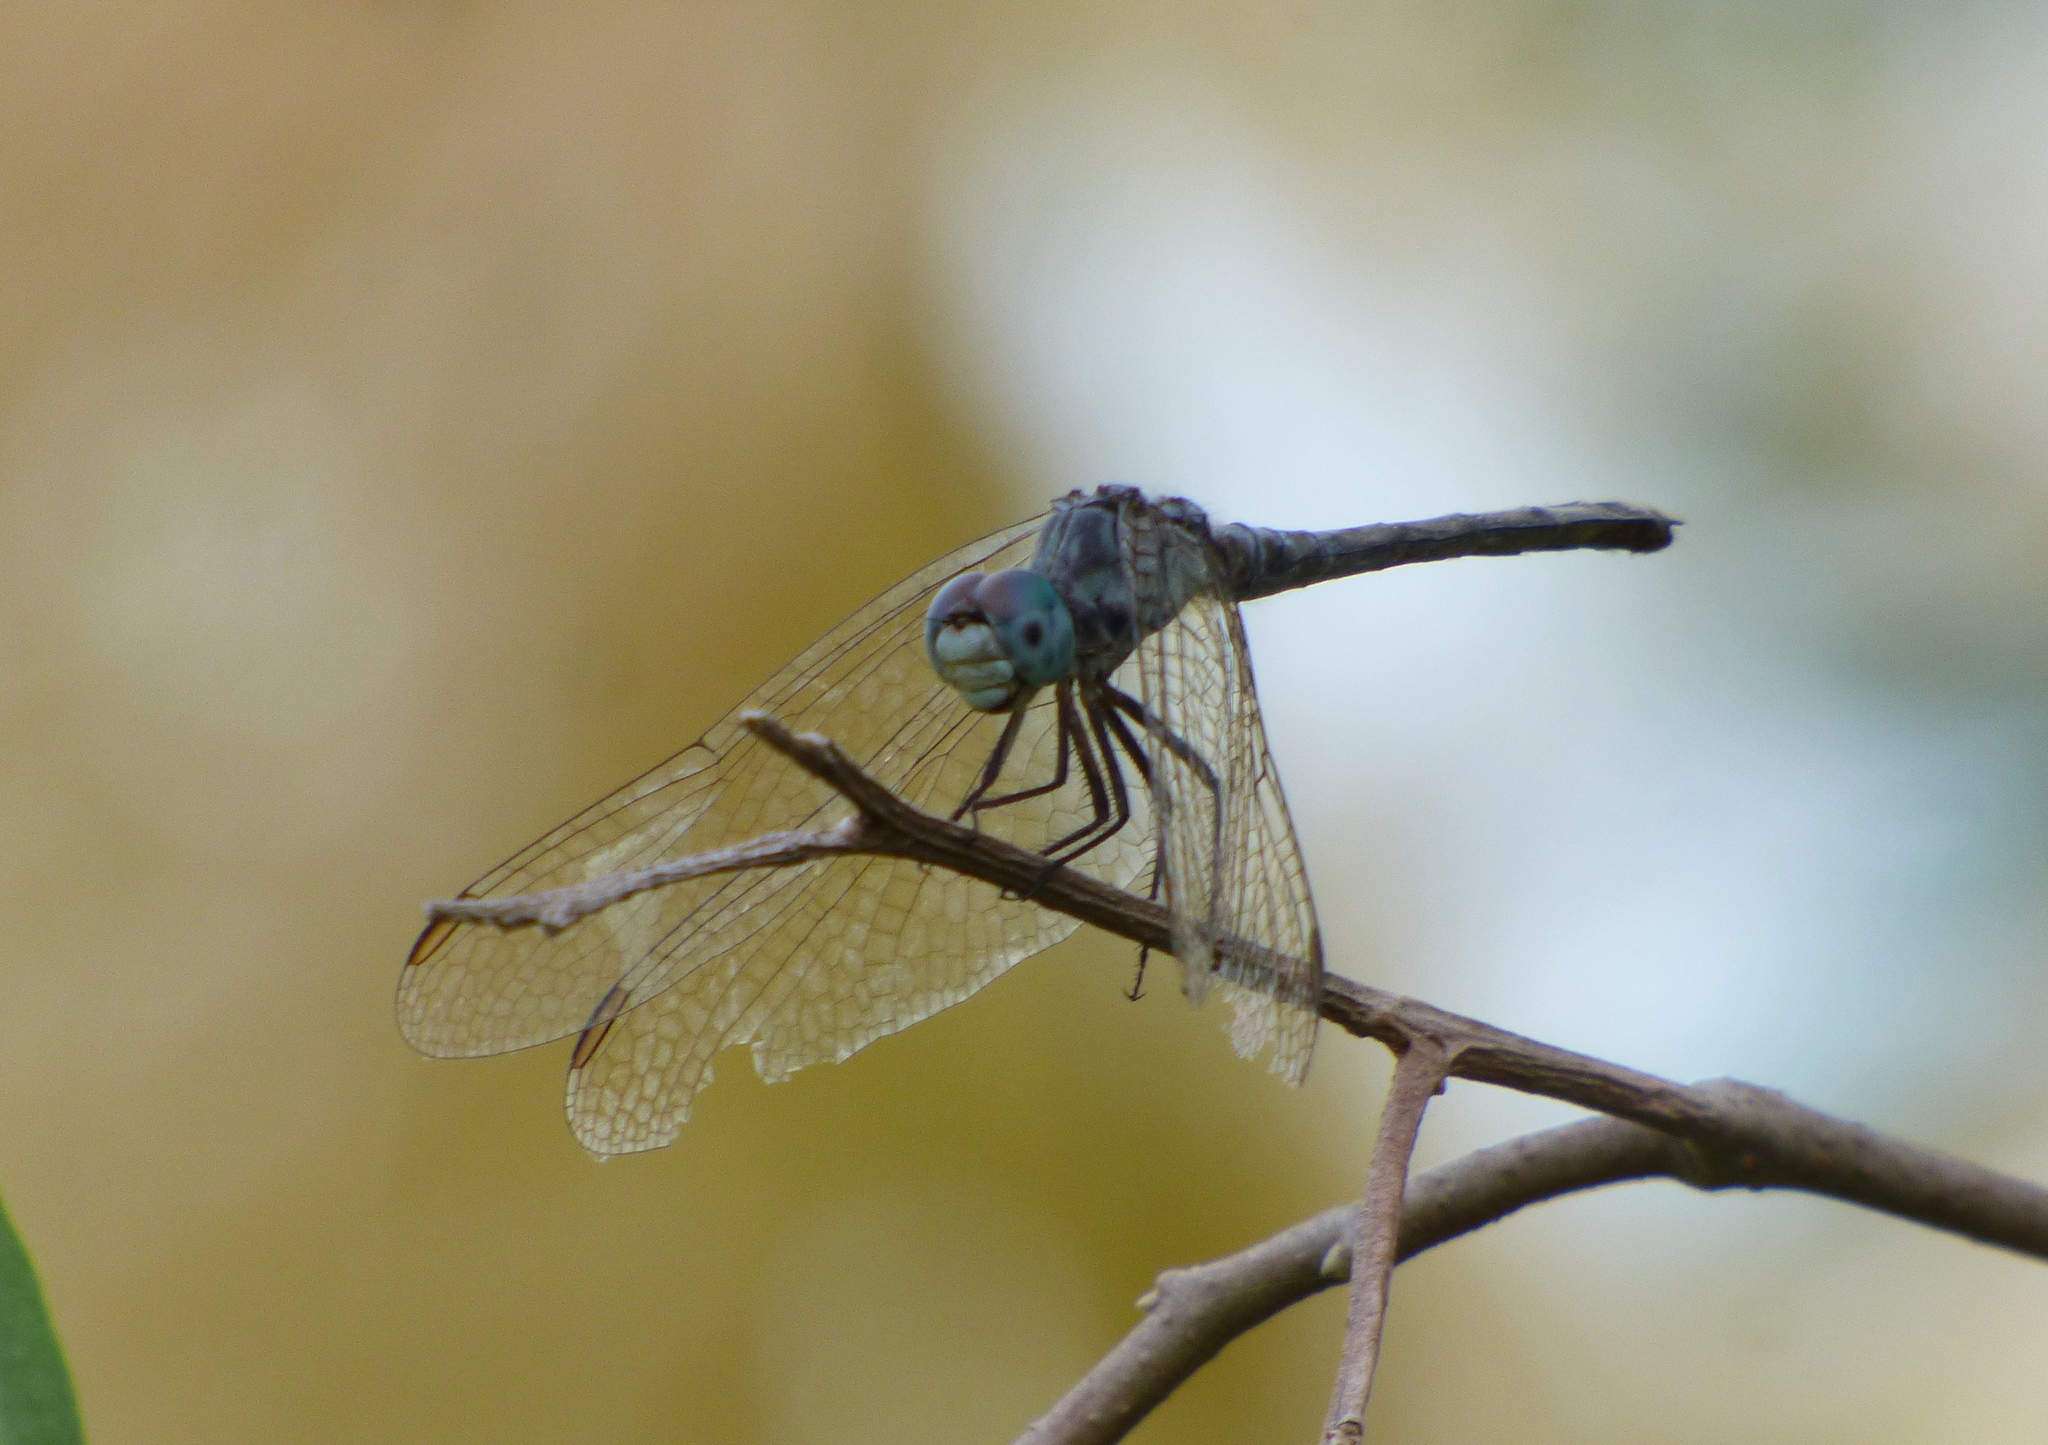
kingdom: Animalia
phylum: Arthropoda
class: Insecta
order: Odonata
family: Libellulidae
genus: Micrathyria
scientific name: Micrathyria longifasciata
